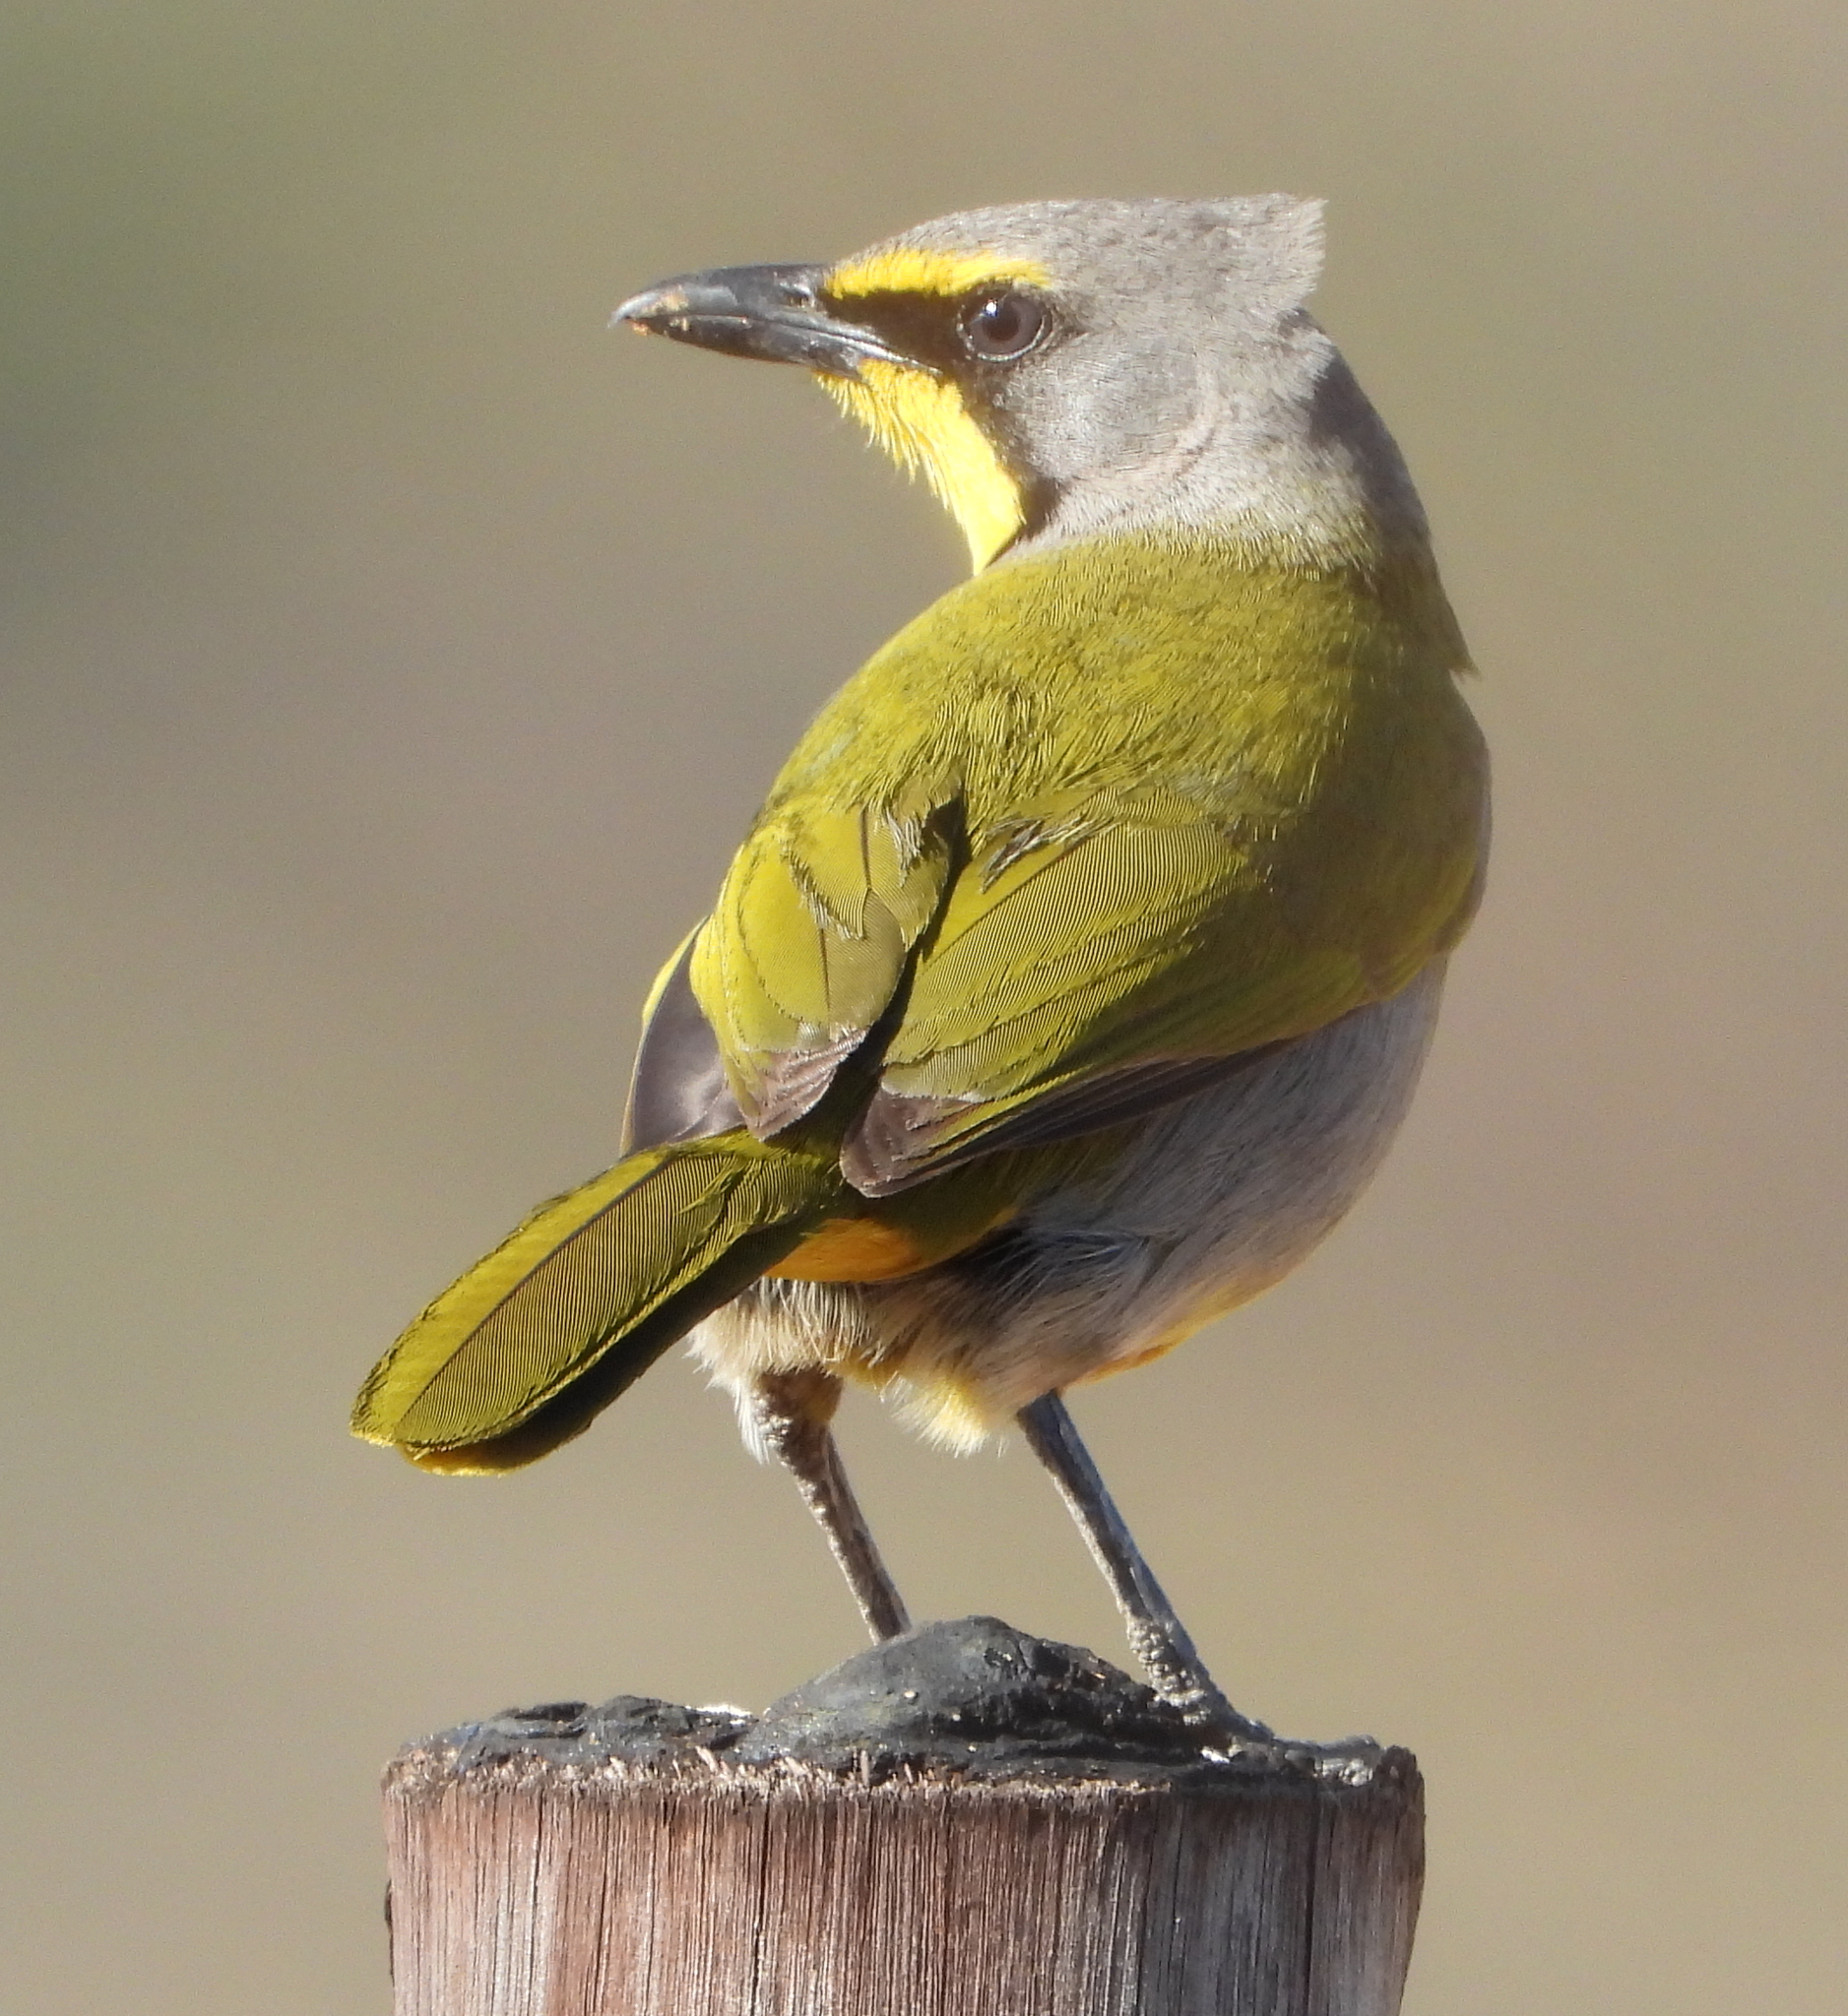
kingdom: Animalia
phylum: Chordata
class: Aves
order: Passeriformes
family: Malaconotidae
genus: Telophorus
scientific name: Telophorus zeylonus
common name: Bokmakierie
